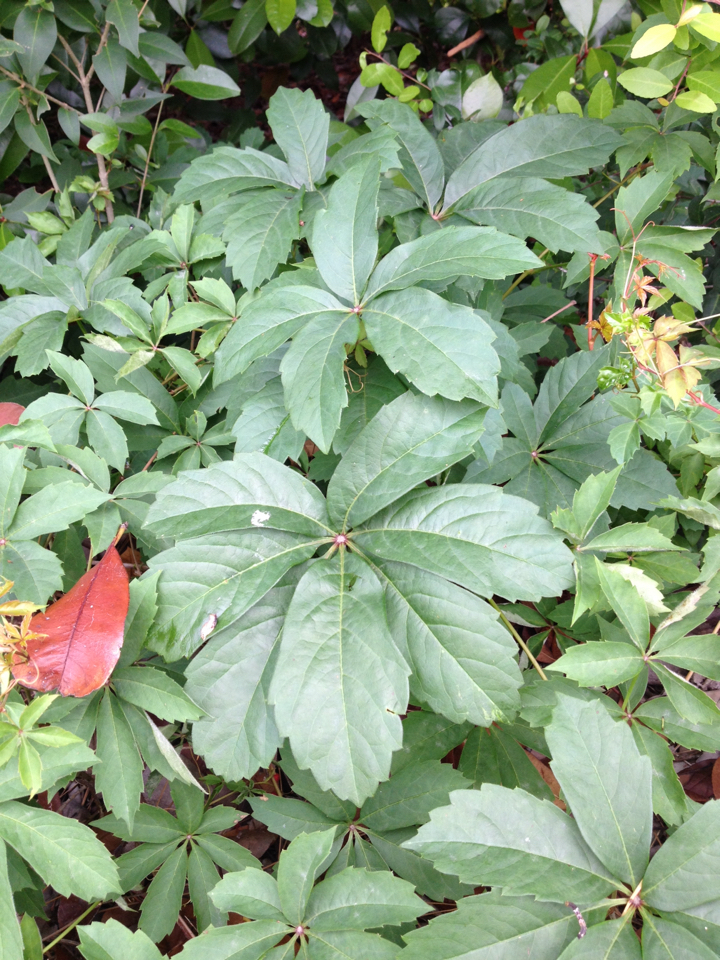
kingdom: Plantae
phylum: Tracheophyta
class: Magnoliopsida
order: Vitales
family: Vitaceae
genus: Parthenocissus
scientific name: Parthenocissus heptaphylla
